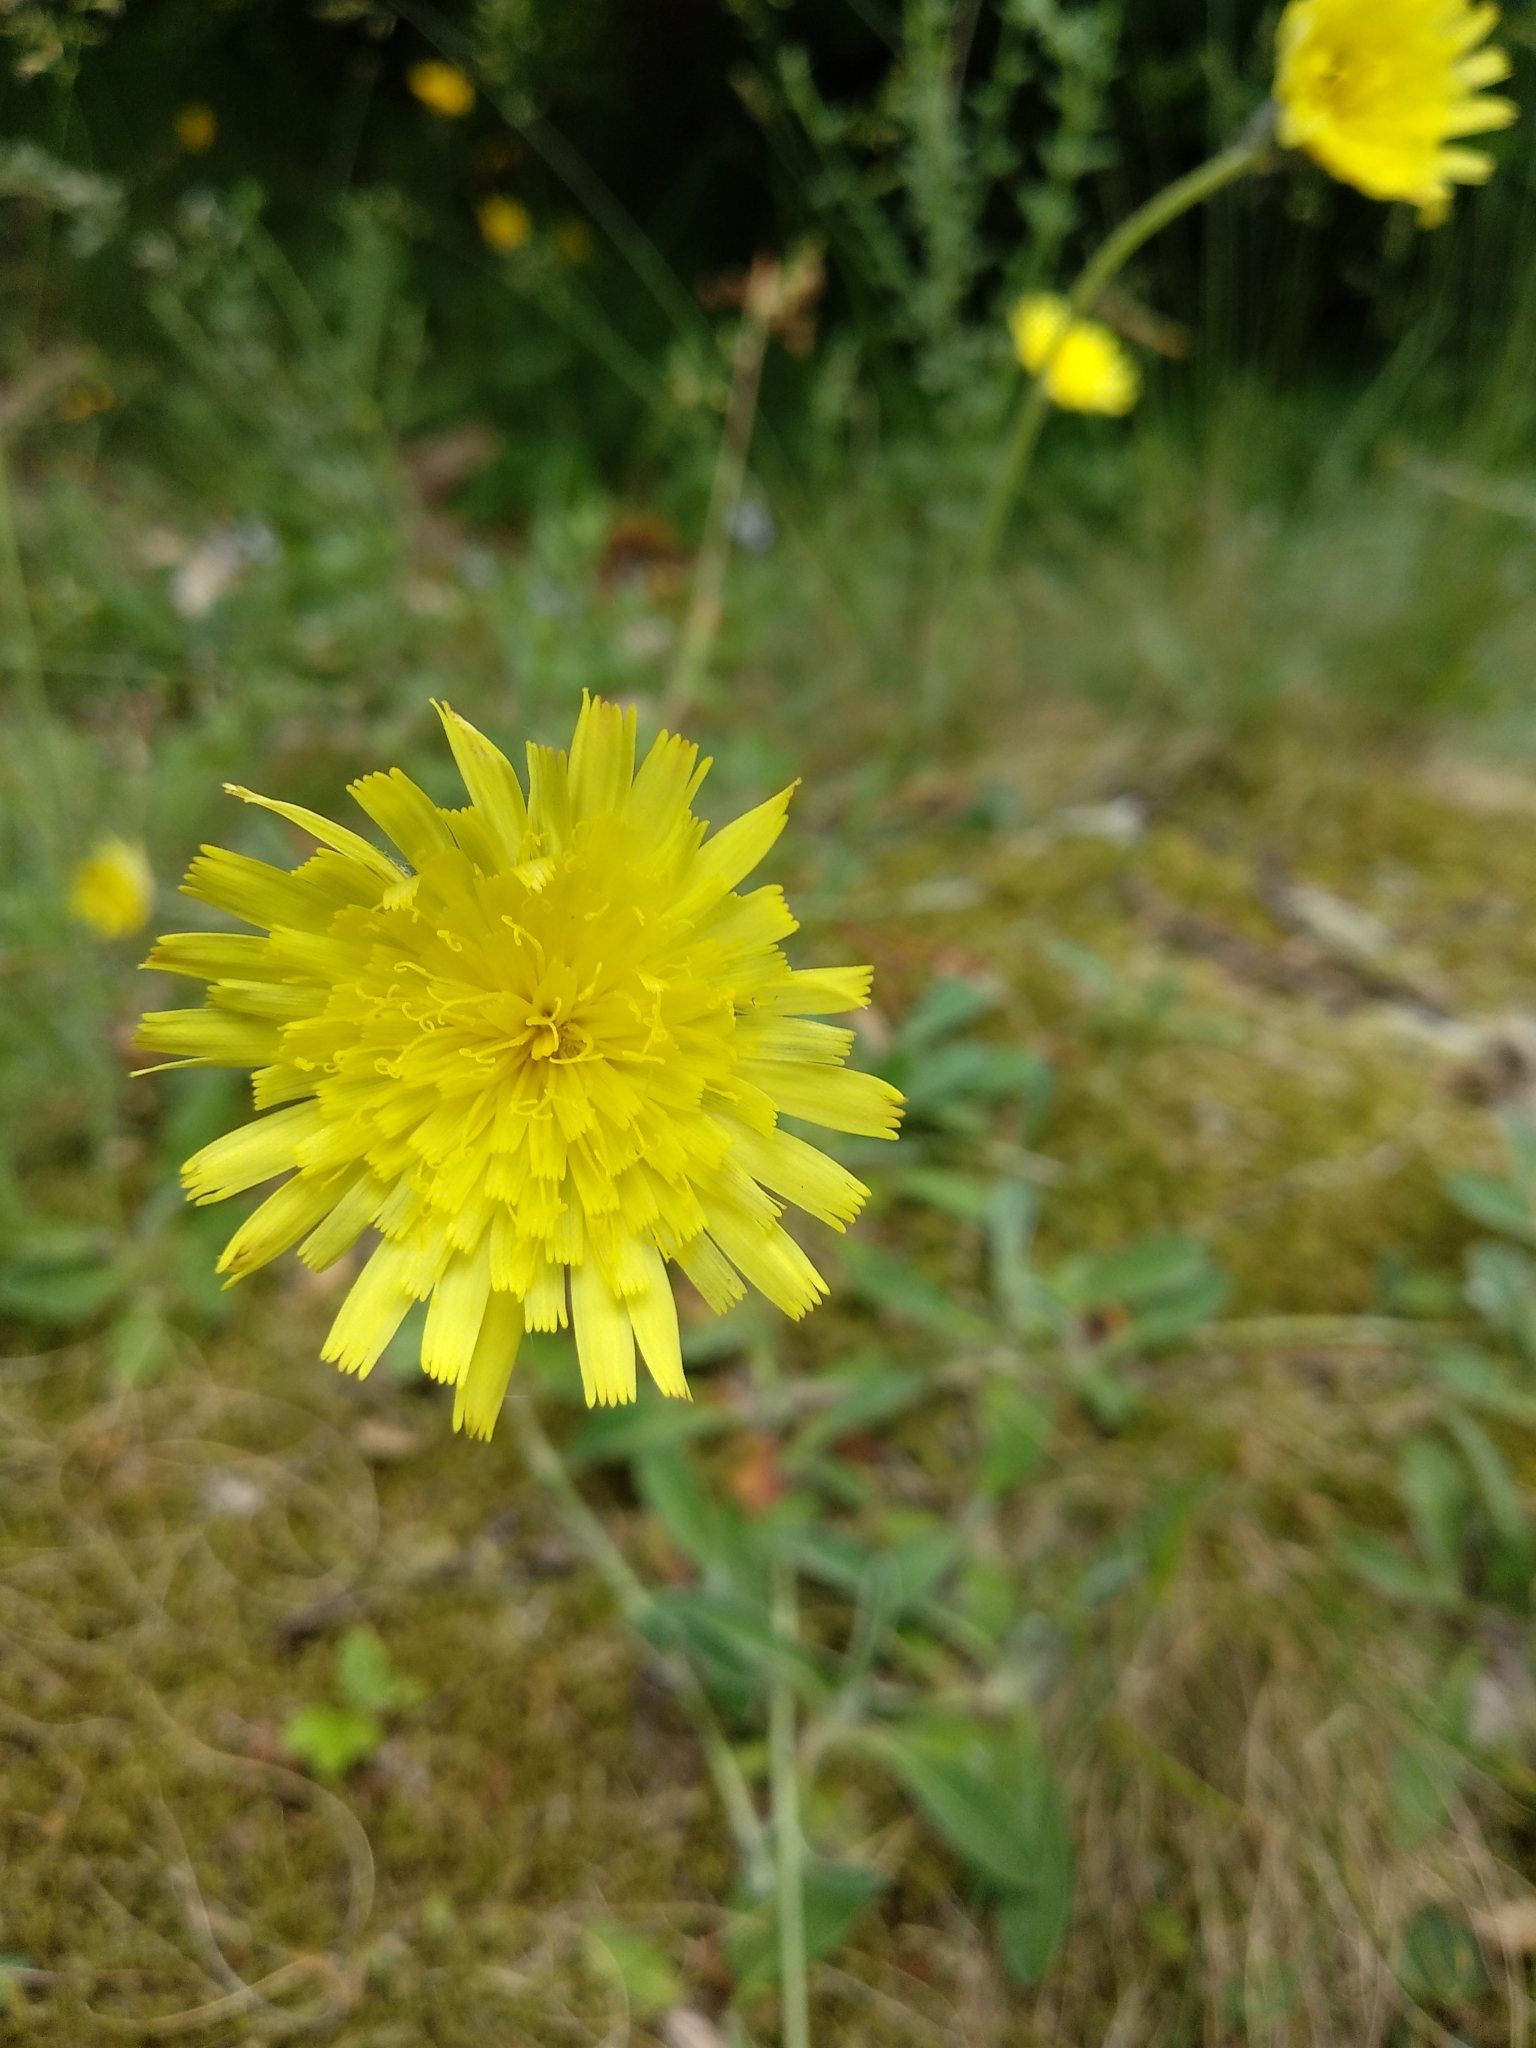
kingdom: Plantae
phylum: Tracheophyta
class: Magnoliopsida
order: Asterales
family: Asteraceae
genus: Pilosella
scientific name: Pilosella officinarum
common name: Mouse-ear hawkweed
